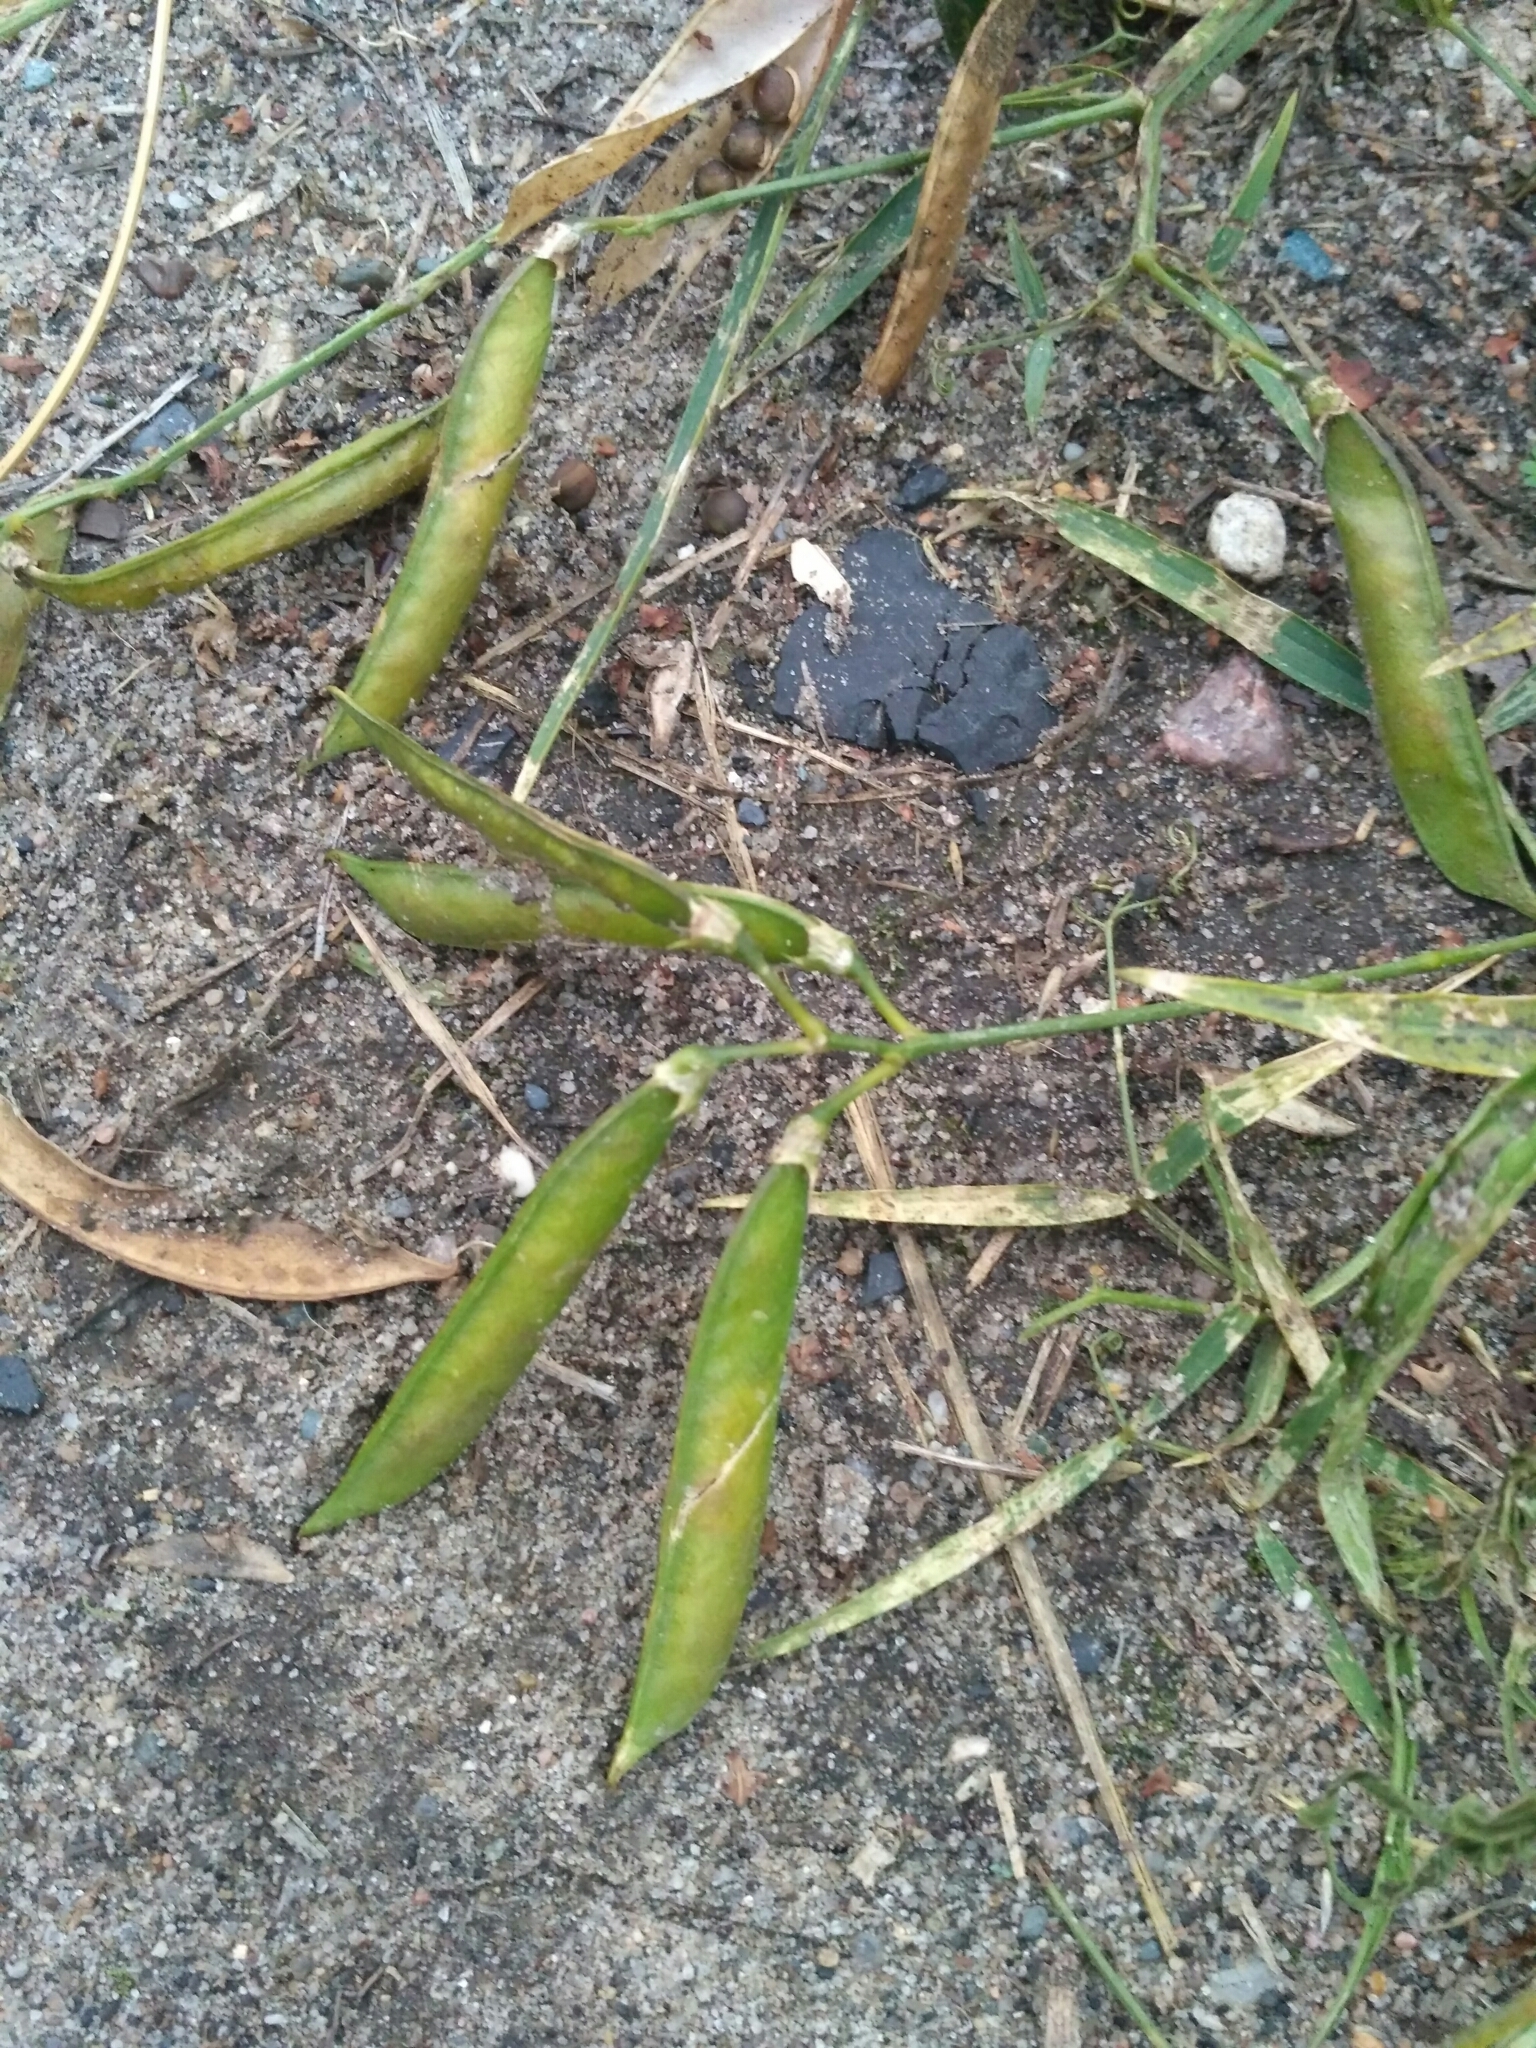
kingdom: Plantae
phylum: Tracheophyta
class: Magnoliopsida
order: Fabales
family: Fabaceae
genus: Lathyrus
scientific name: Lathyrus sylvestris
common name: Flat pea
